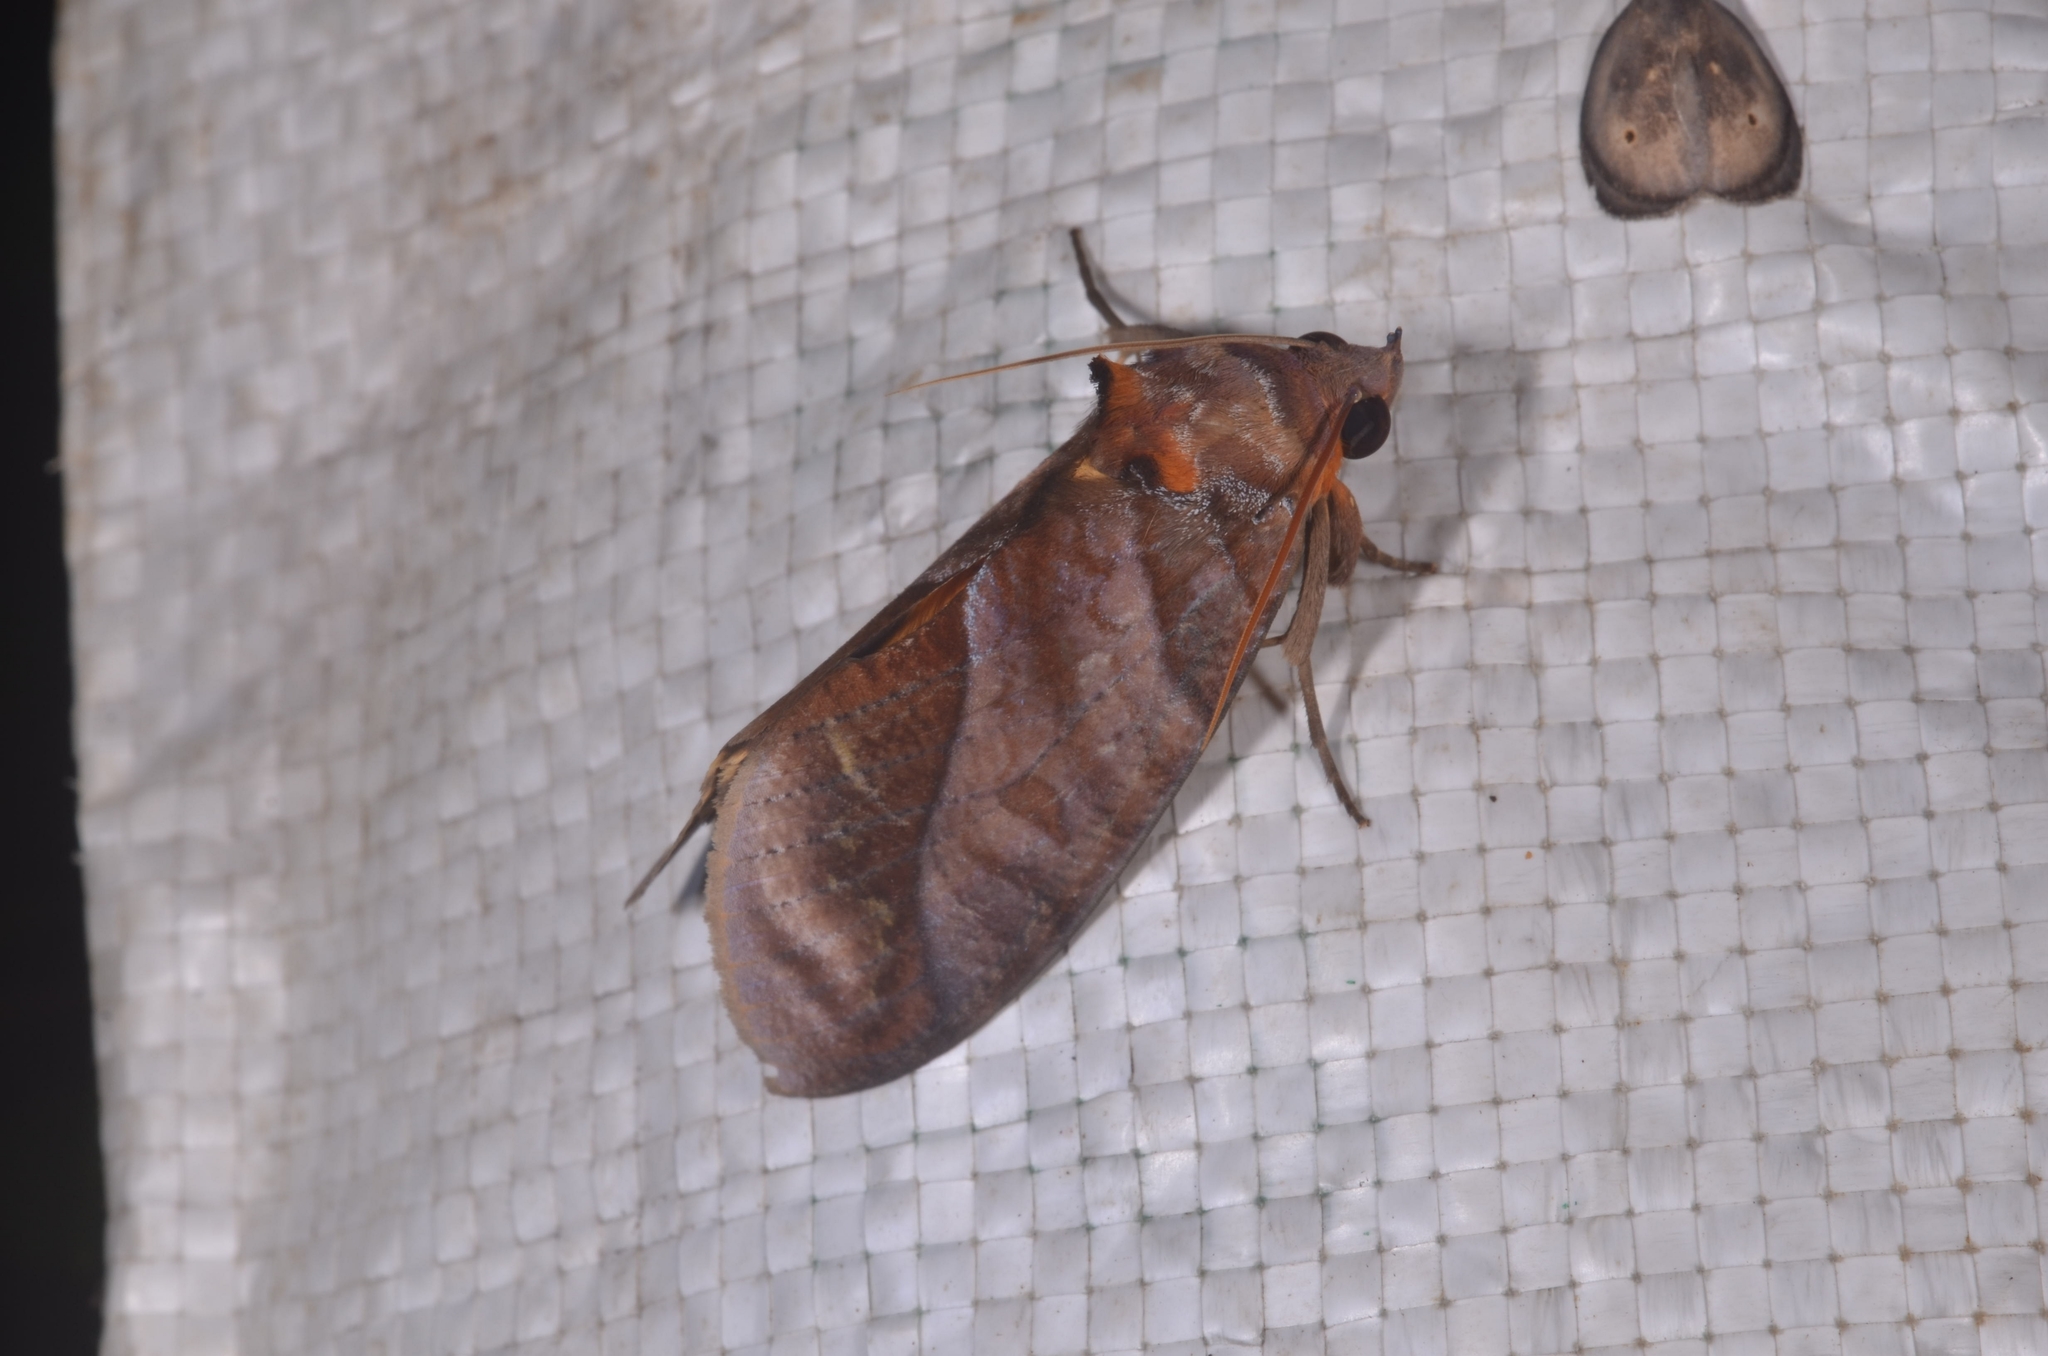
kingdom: Animalia
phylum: Arthropoda
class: Insecta
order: Lepidoptera
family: Erebidae
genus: Eudocima
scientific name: Eudocima homaena
